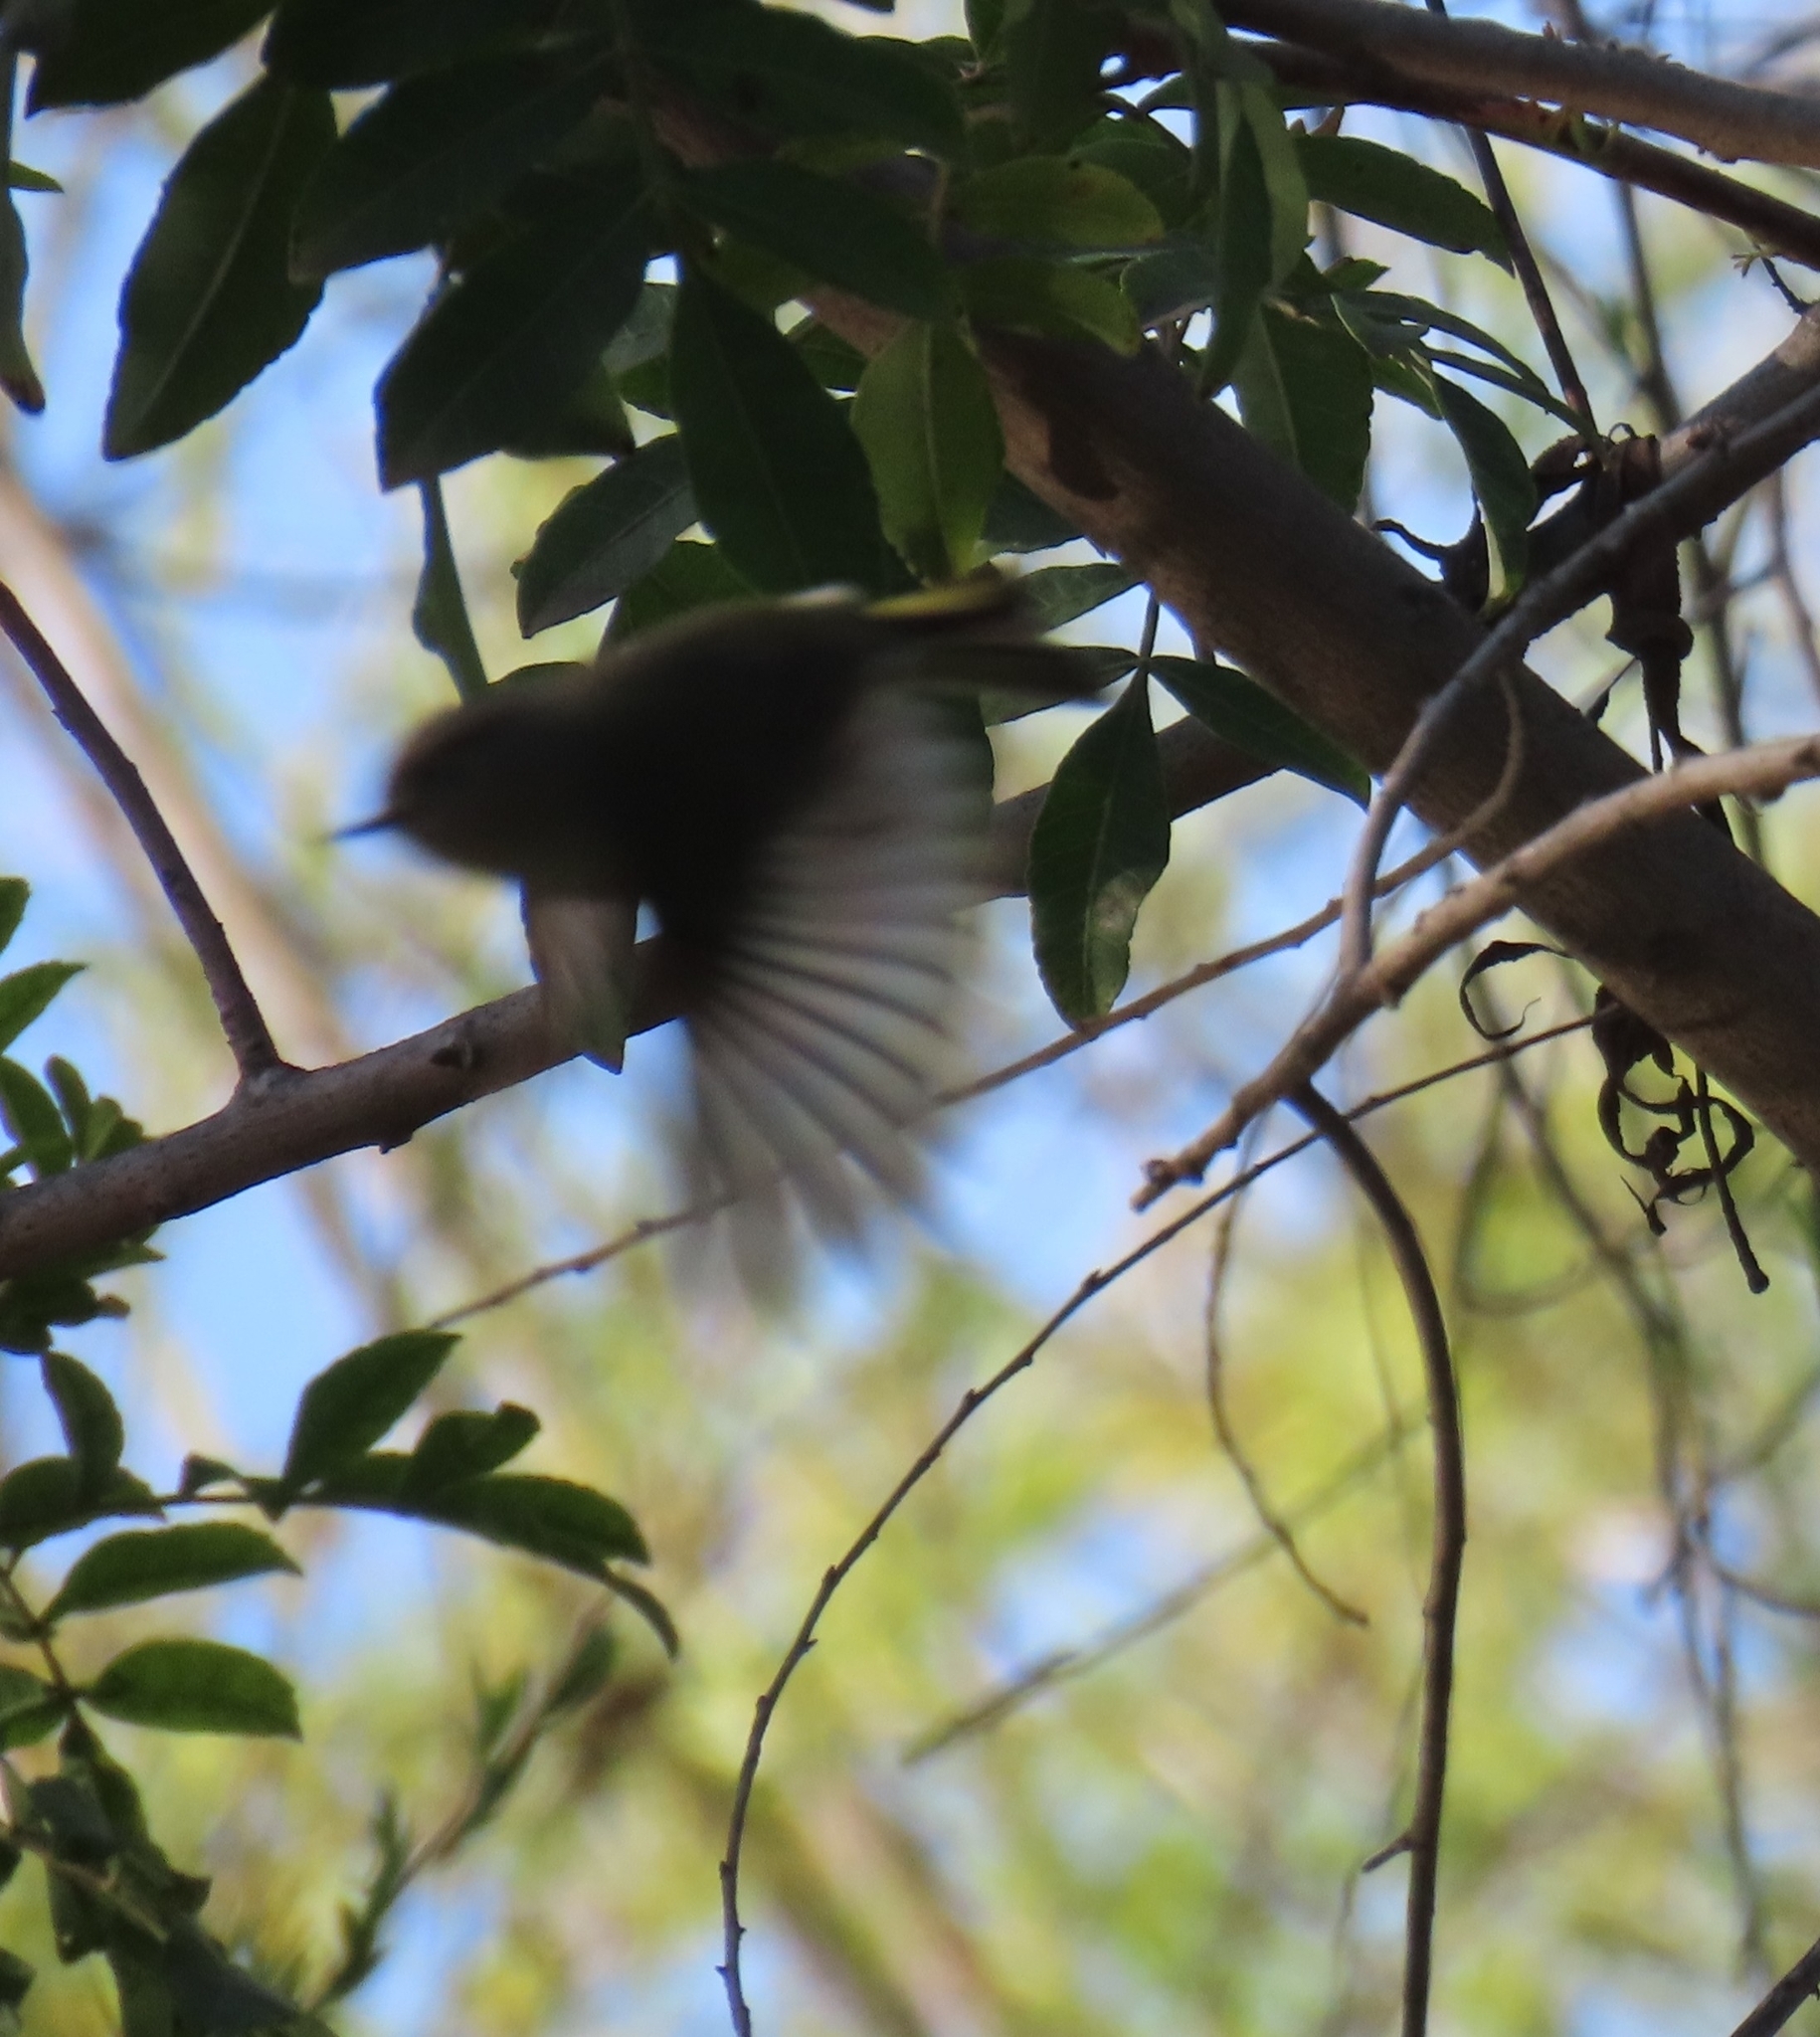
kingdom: Animalia
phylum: Chordata
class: Aves
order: Passeriformes
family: Regulidae
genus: Regulus
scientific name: Regulus calendula
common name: Ruby-crowned kinglet
